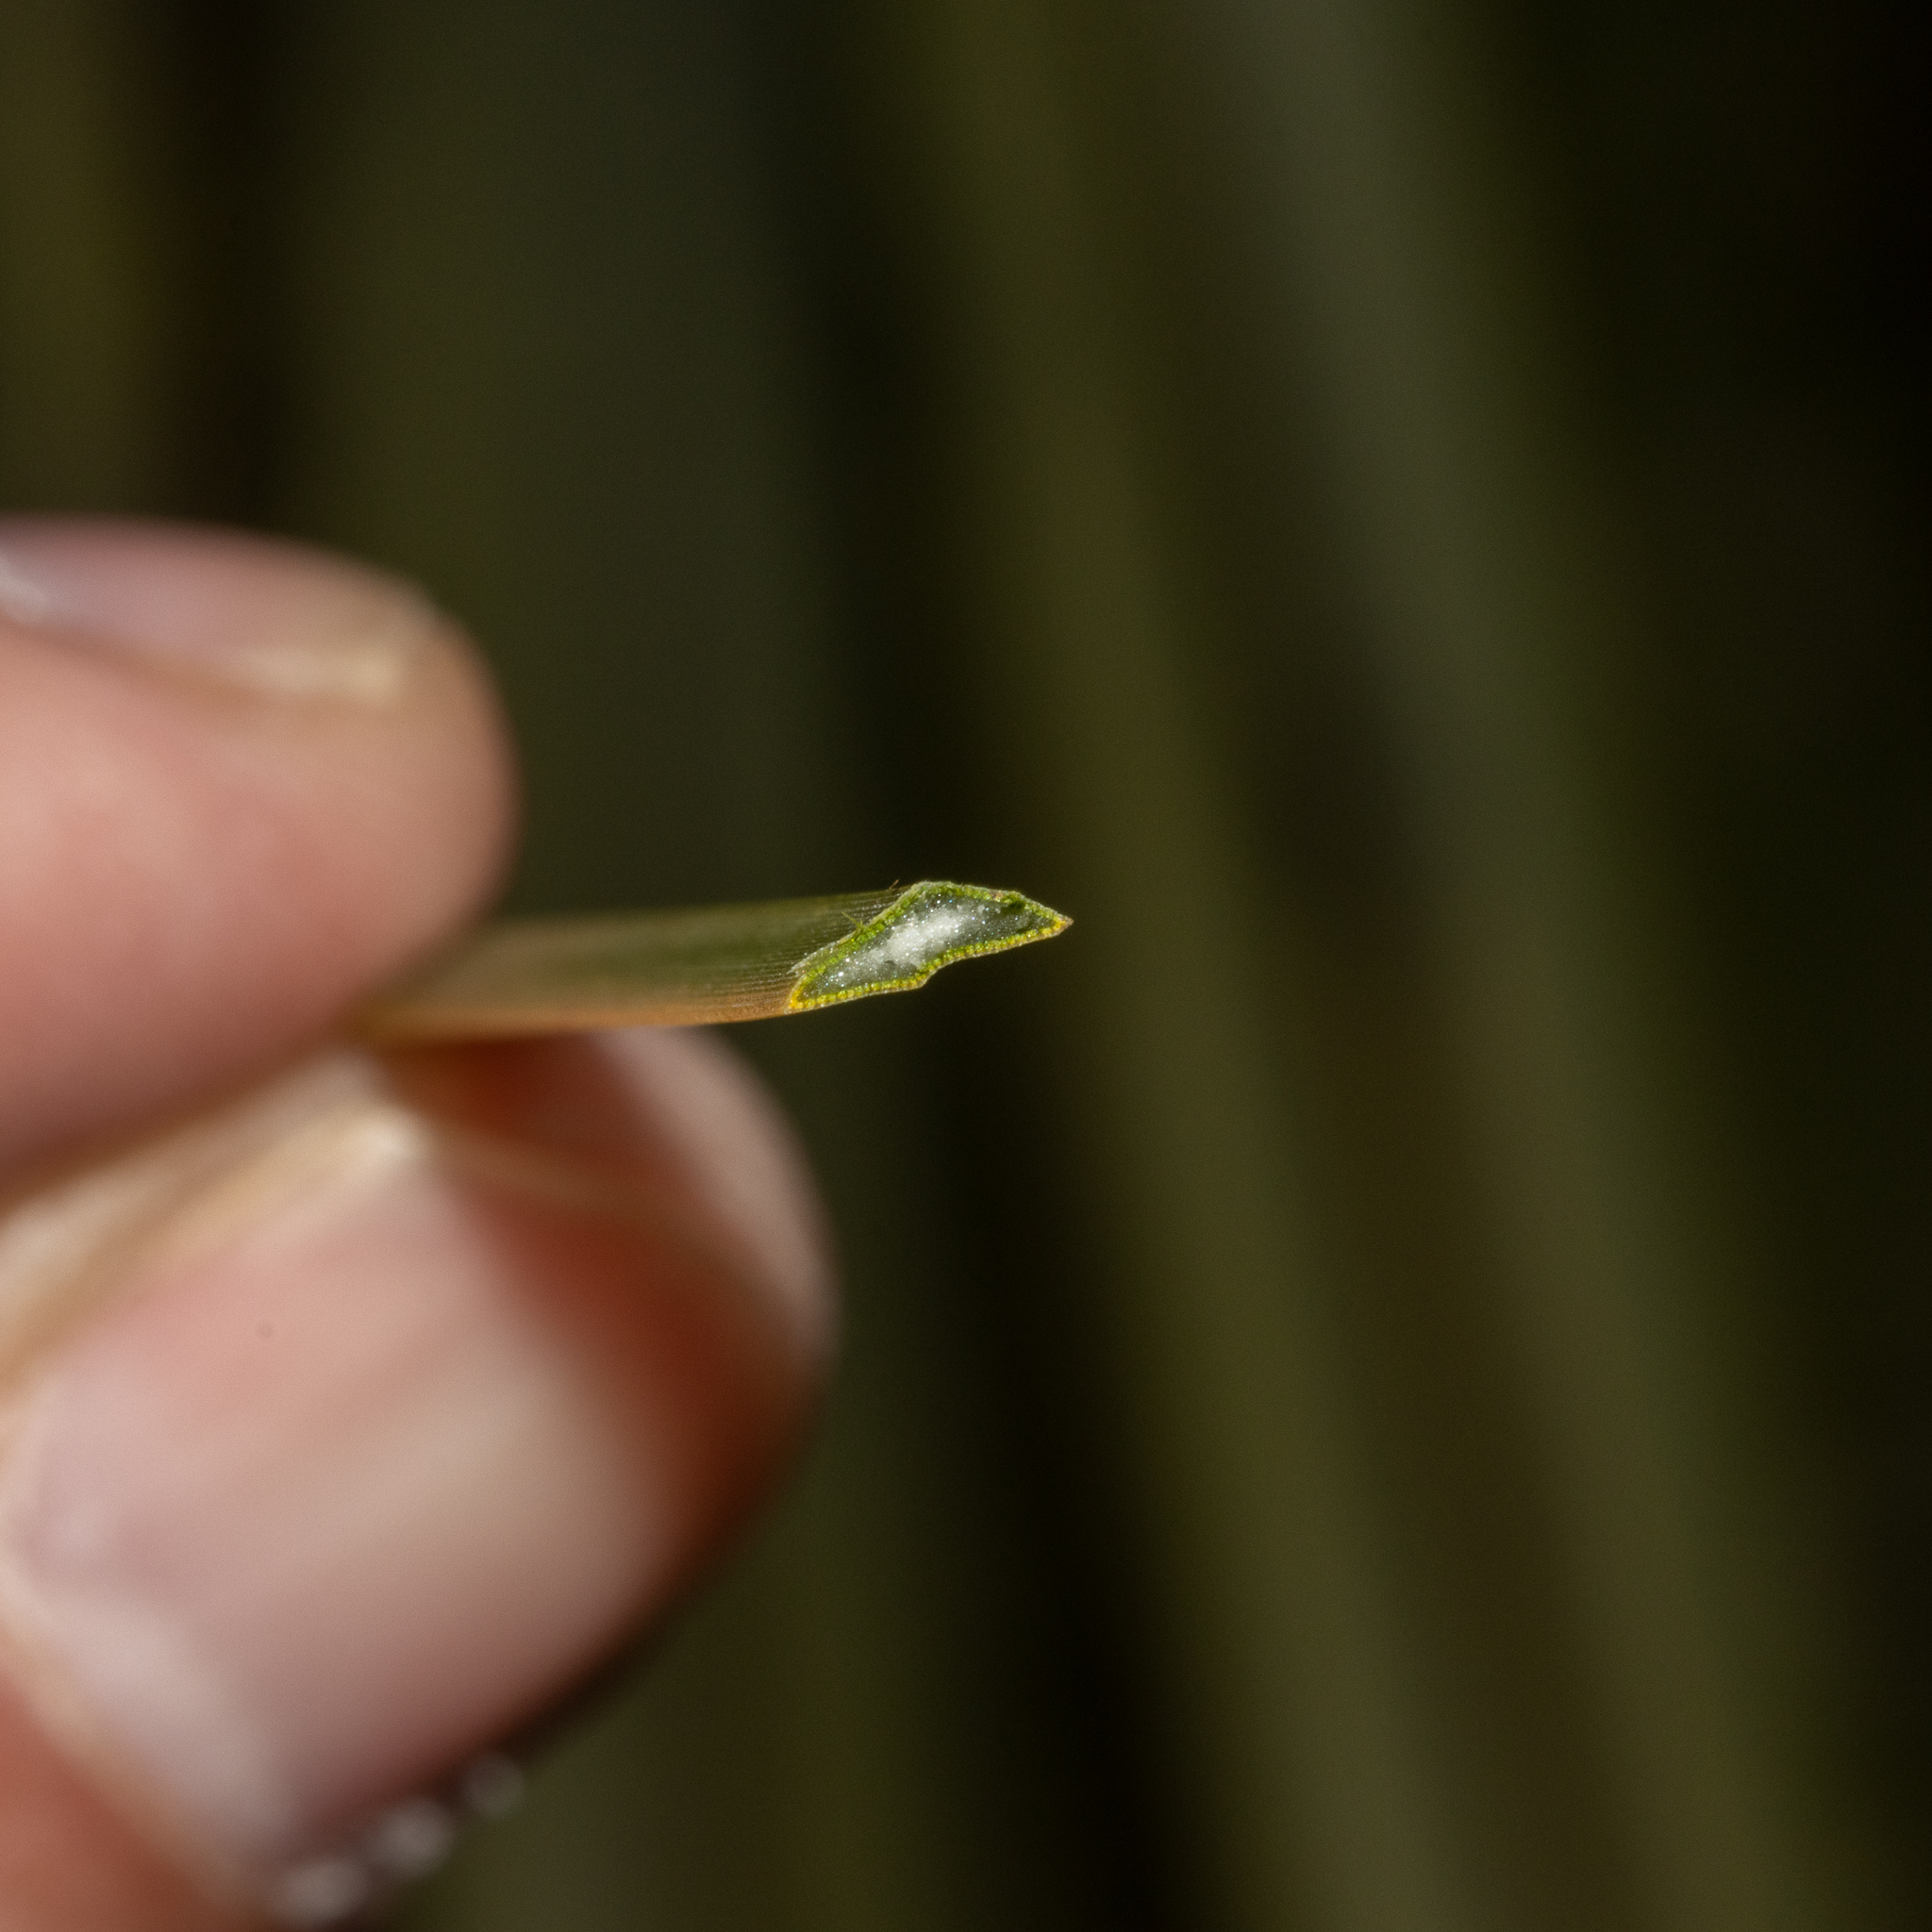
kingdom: Plantae
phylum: Tracheophyta
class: Liliopsida
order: Asparagales
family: Asphodelaceae
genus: Xanthorrhoea
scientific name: Xanthorrhoea semiplana
